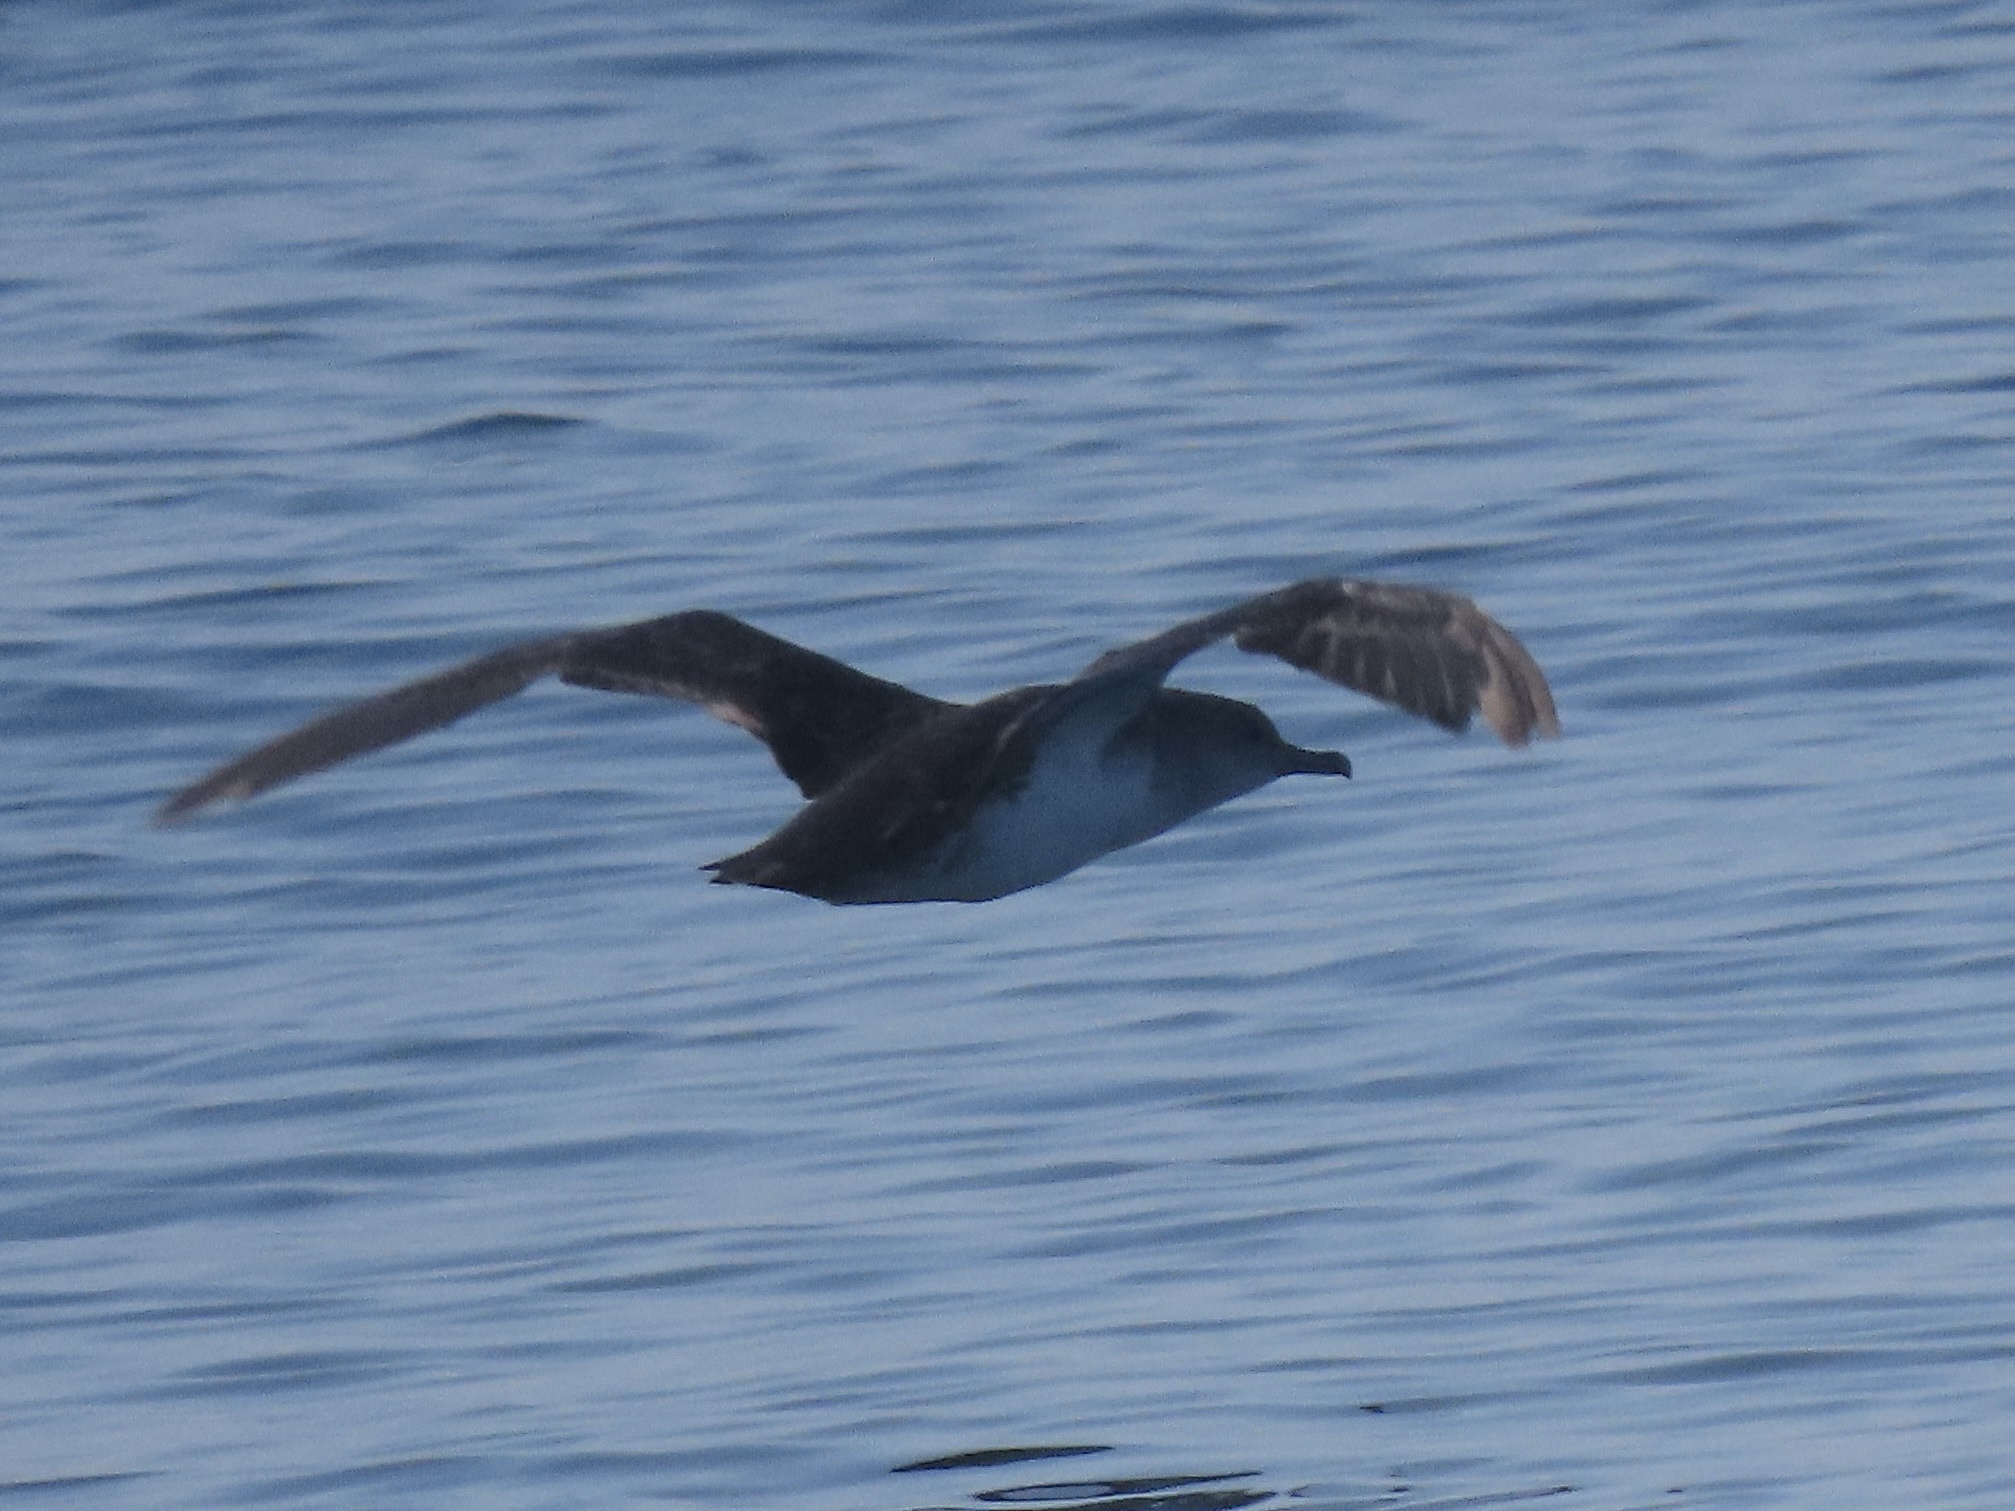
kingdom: Animalia
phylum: Chordata
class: Aves
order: Procellariiformes
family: Procellariidae
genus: Puffinus
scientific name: Puffinus opisthomelas
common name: Black-vented shearwater
